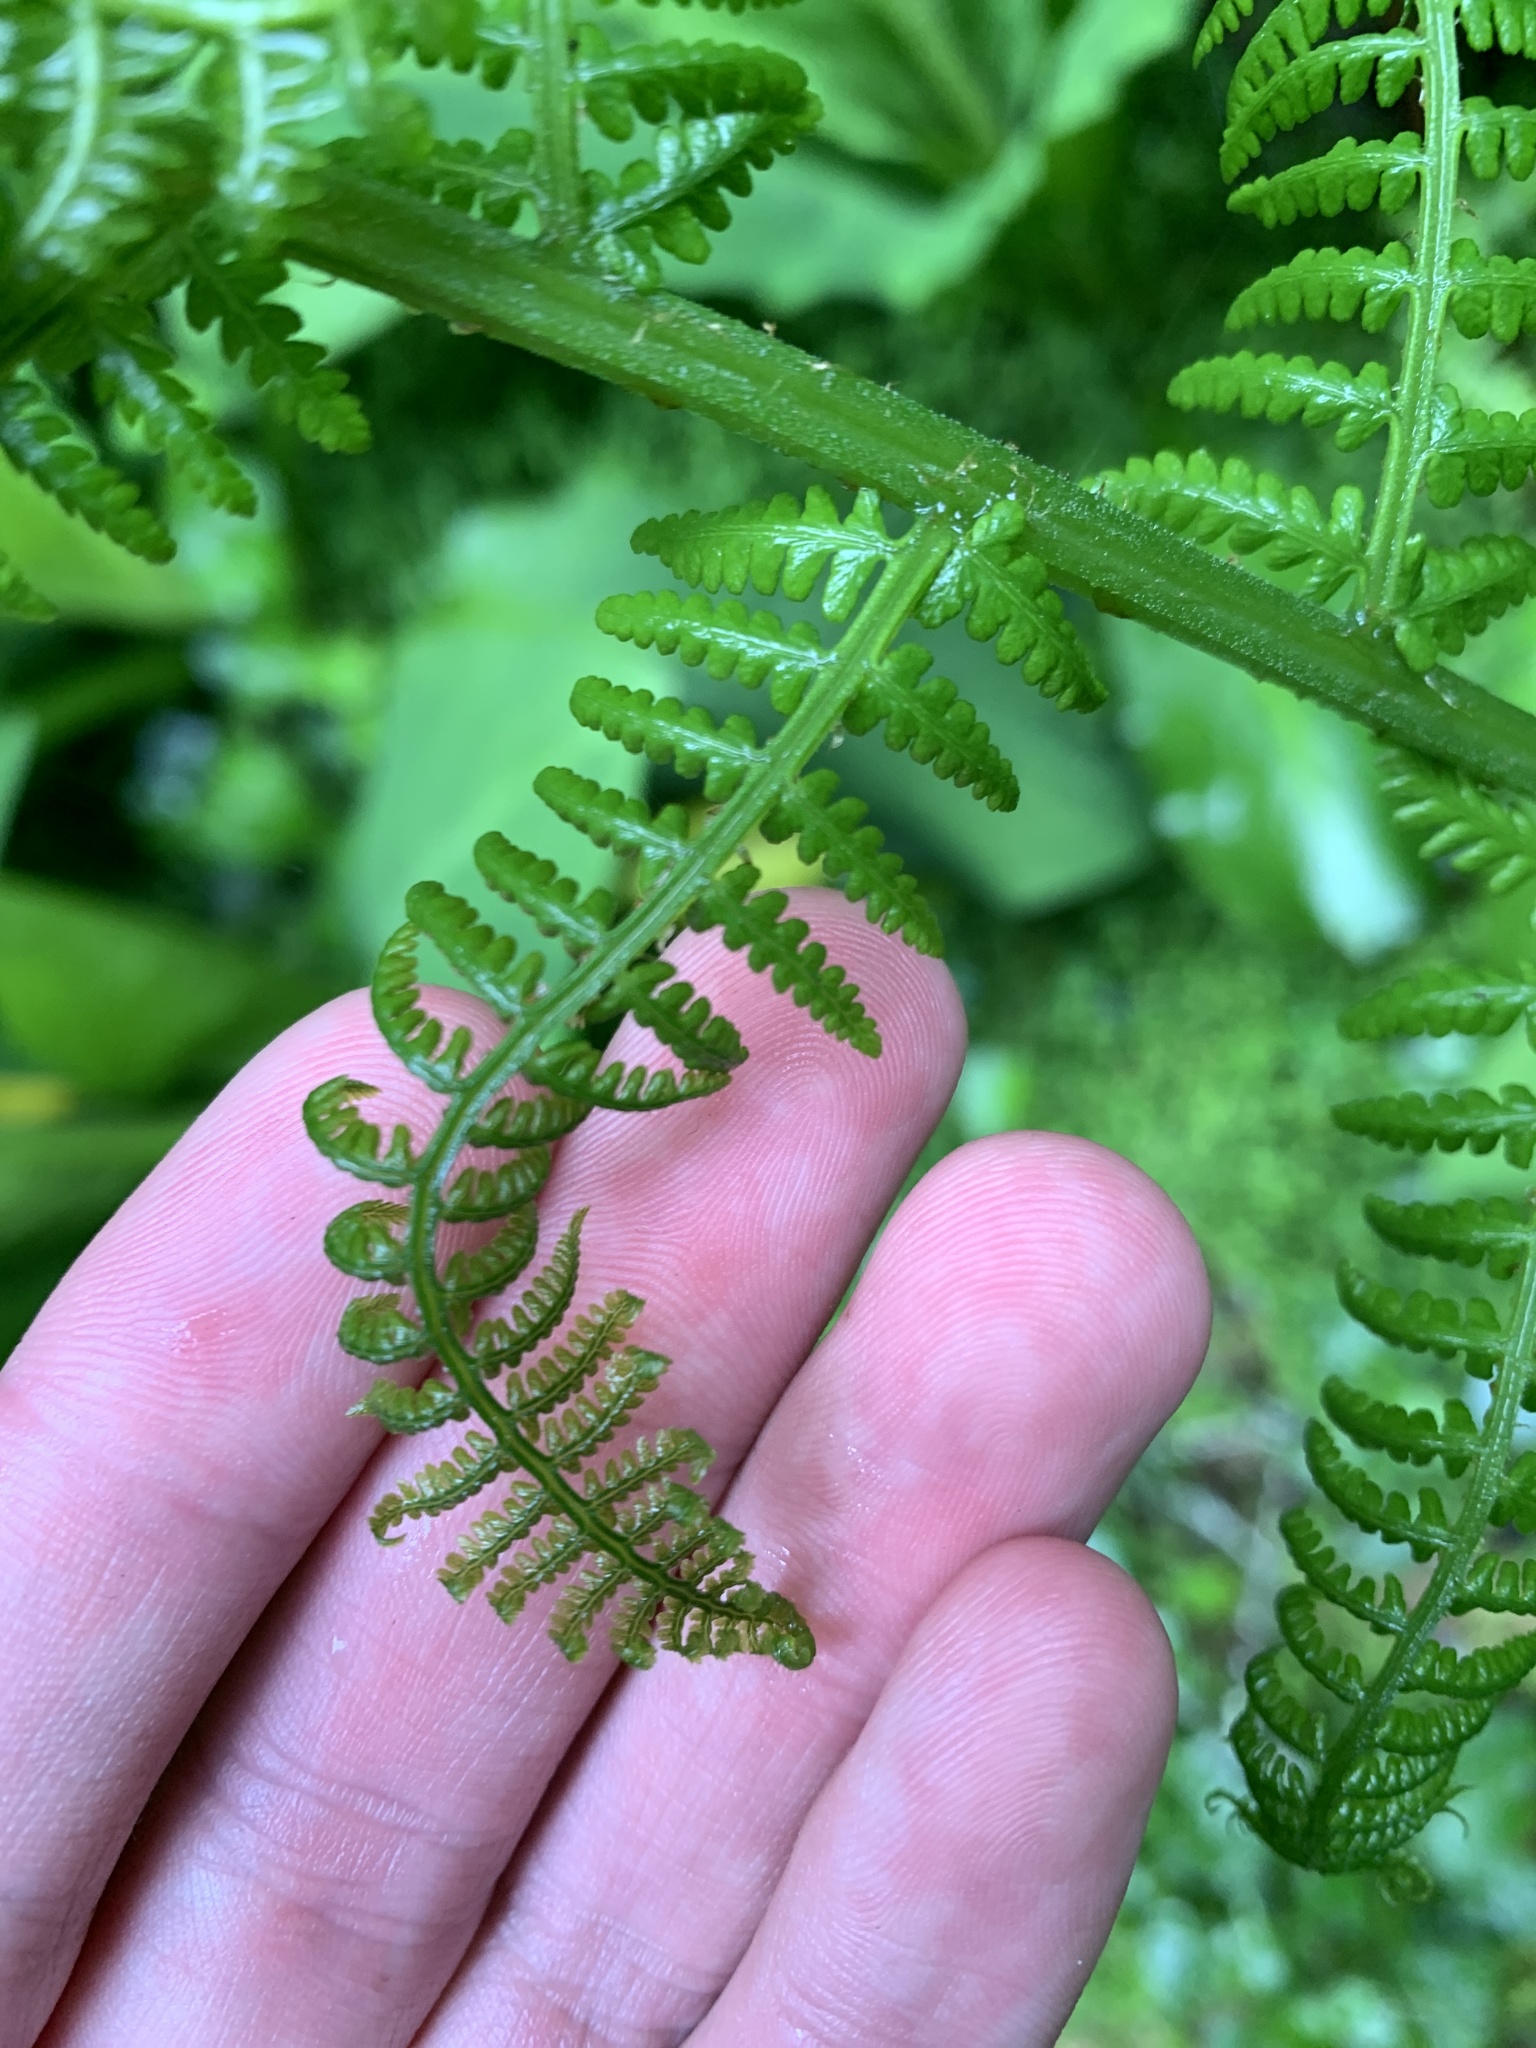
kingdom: Plantae
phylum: Tracheophyta
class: Polypodiopsida
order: Polypodiales
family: Athyriaceae
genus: Athyrium
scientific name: Athyrium cyclosorum
